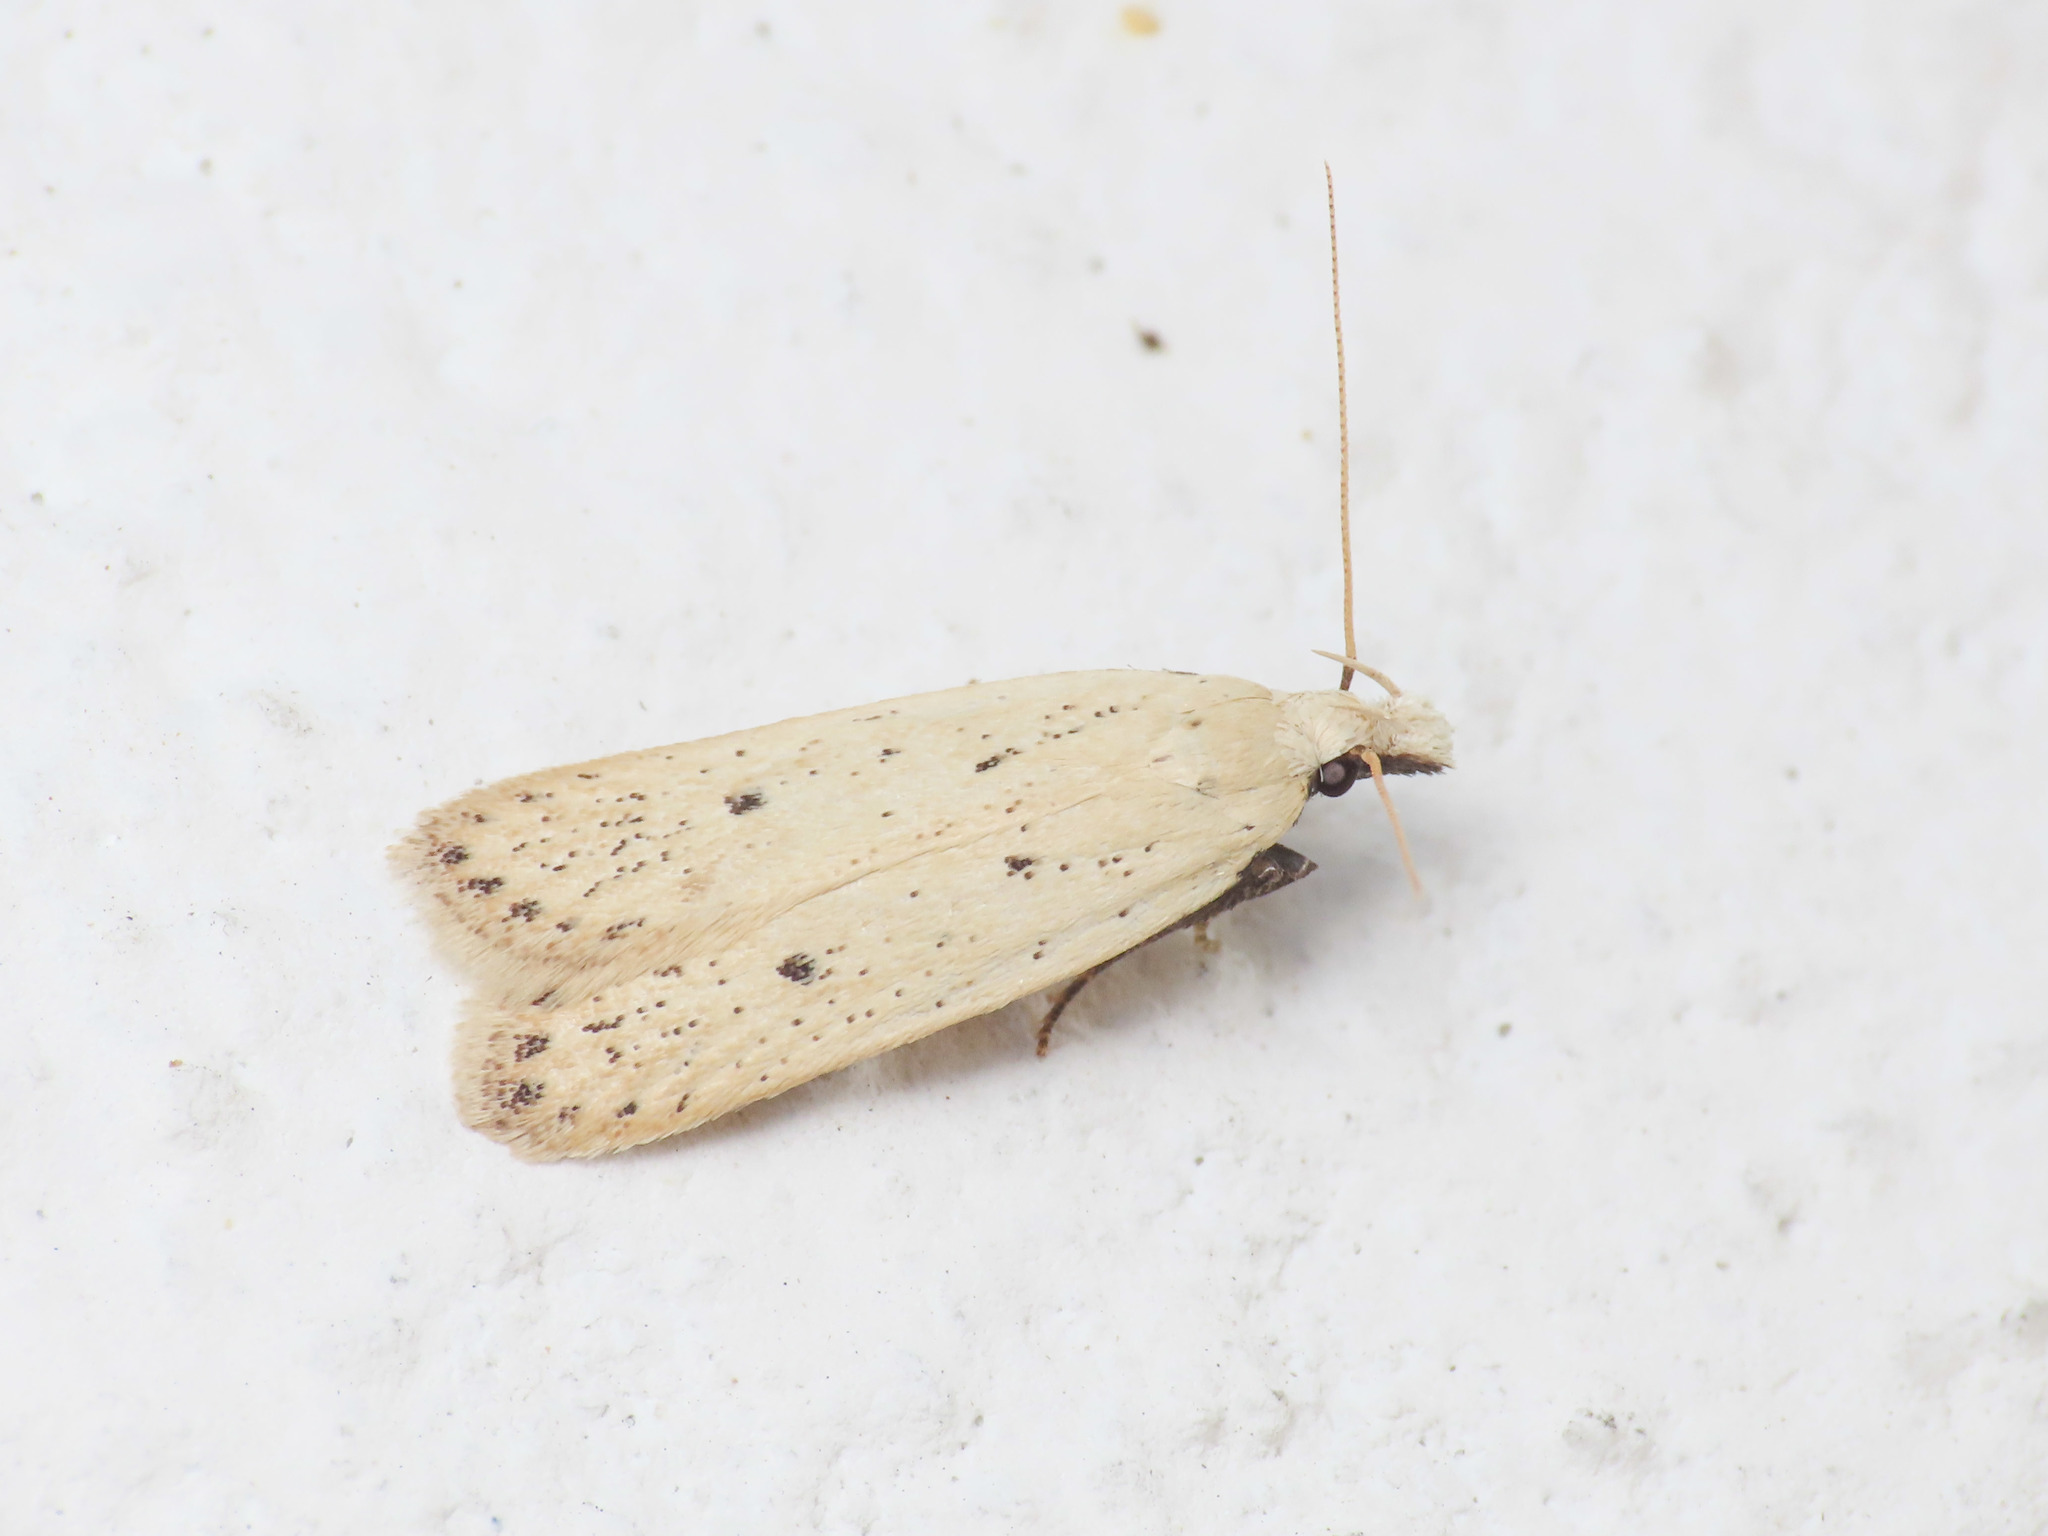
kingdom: Animalia
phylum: Arthropoda
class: Insecta
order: Lepidoptera
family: Gelechiidae
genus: Nothris
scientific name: Nothris verbascella
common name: Clay groundling
